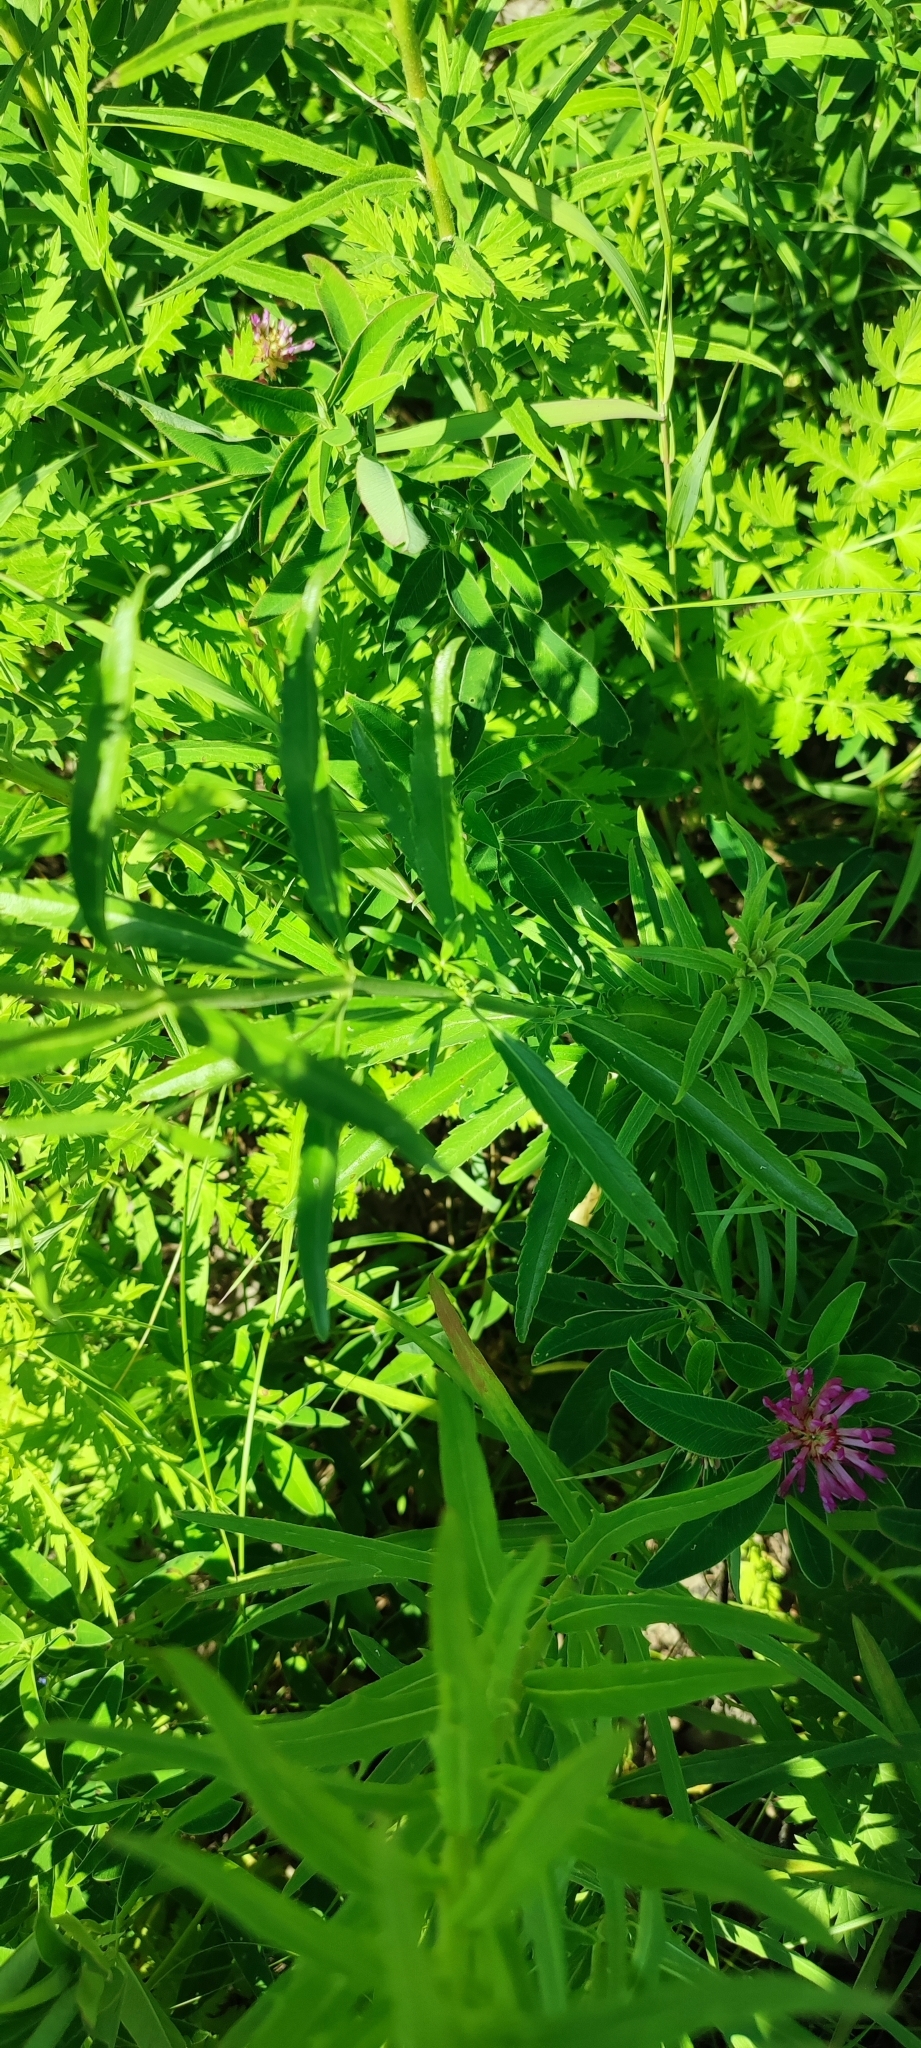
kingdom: Plantae
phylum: Tracheophyta
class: Magnoliopsida
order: Lamiales
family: Plantaginaceae
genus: Veronica
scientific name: Veronica spuria
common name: Bastard speedwell
